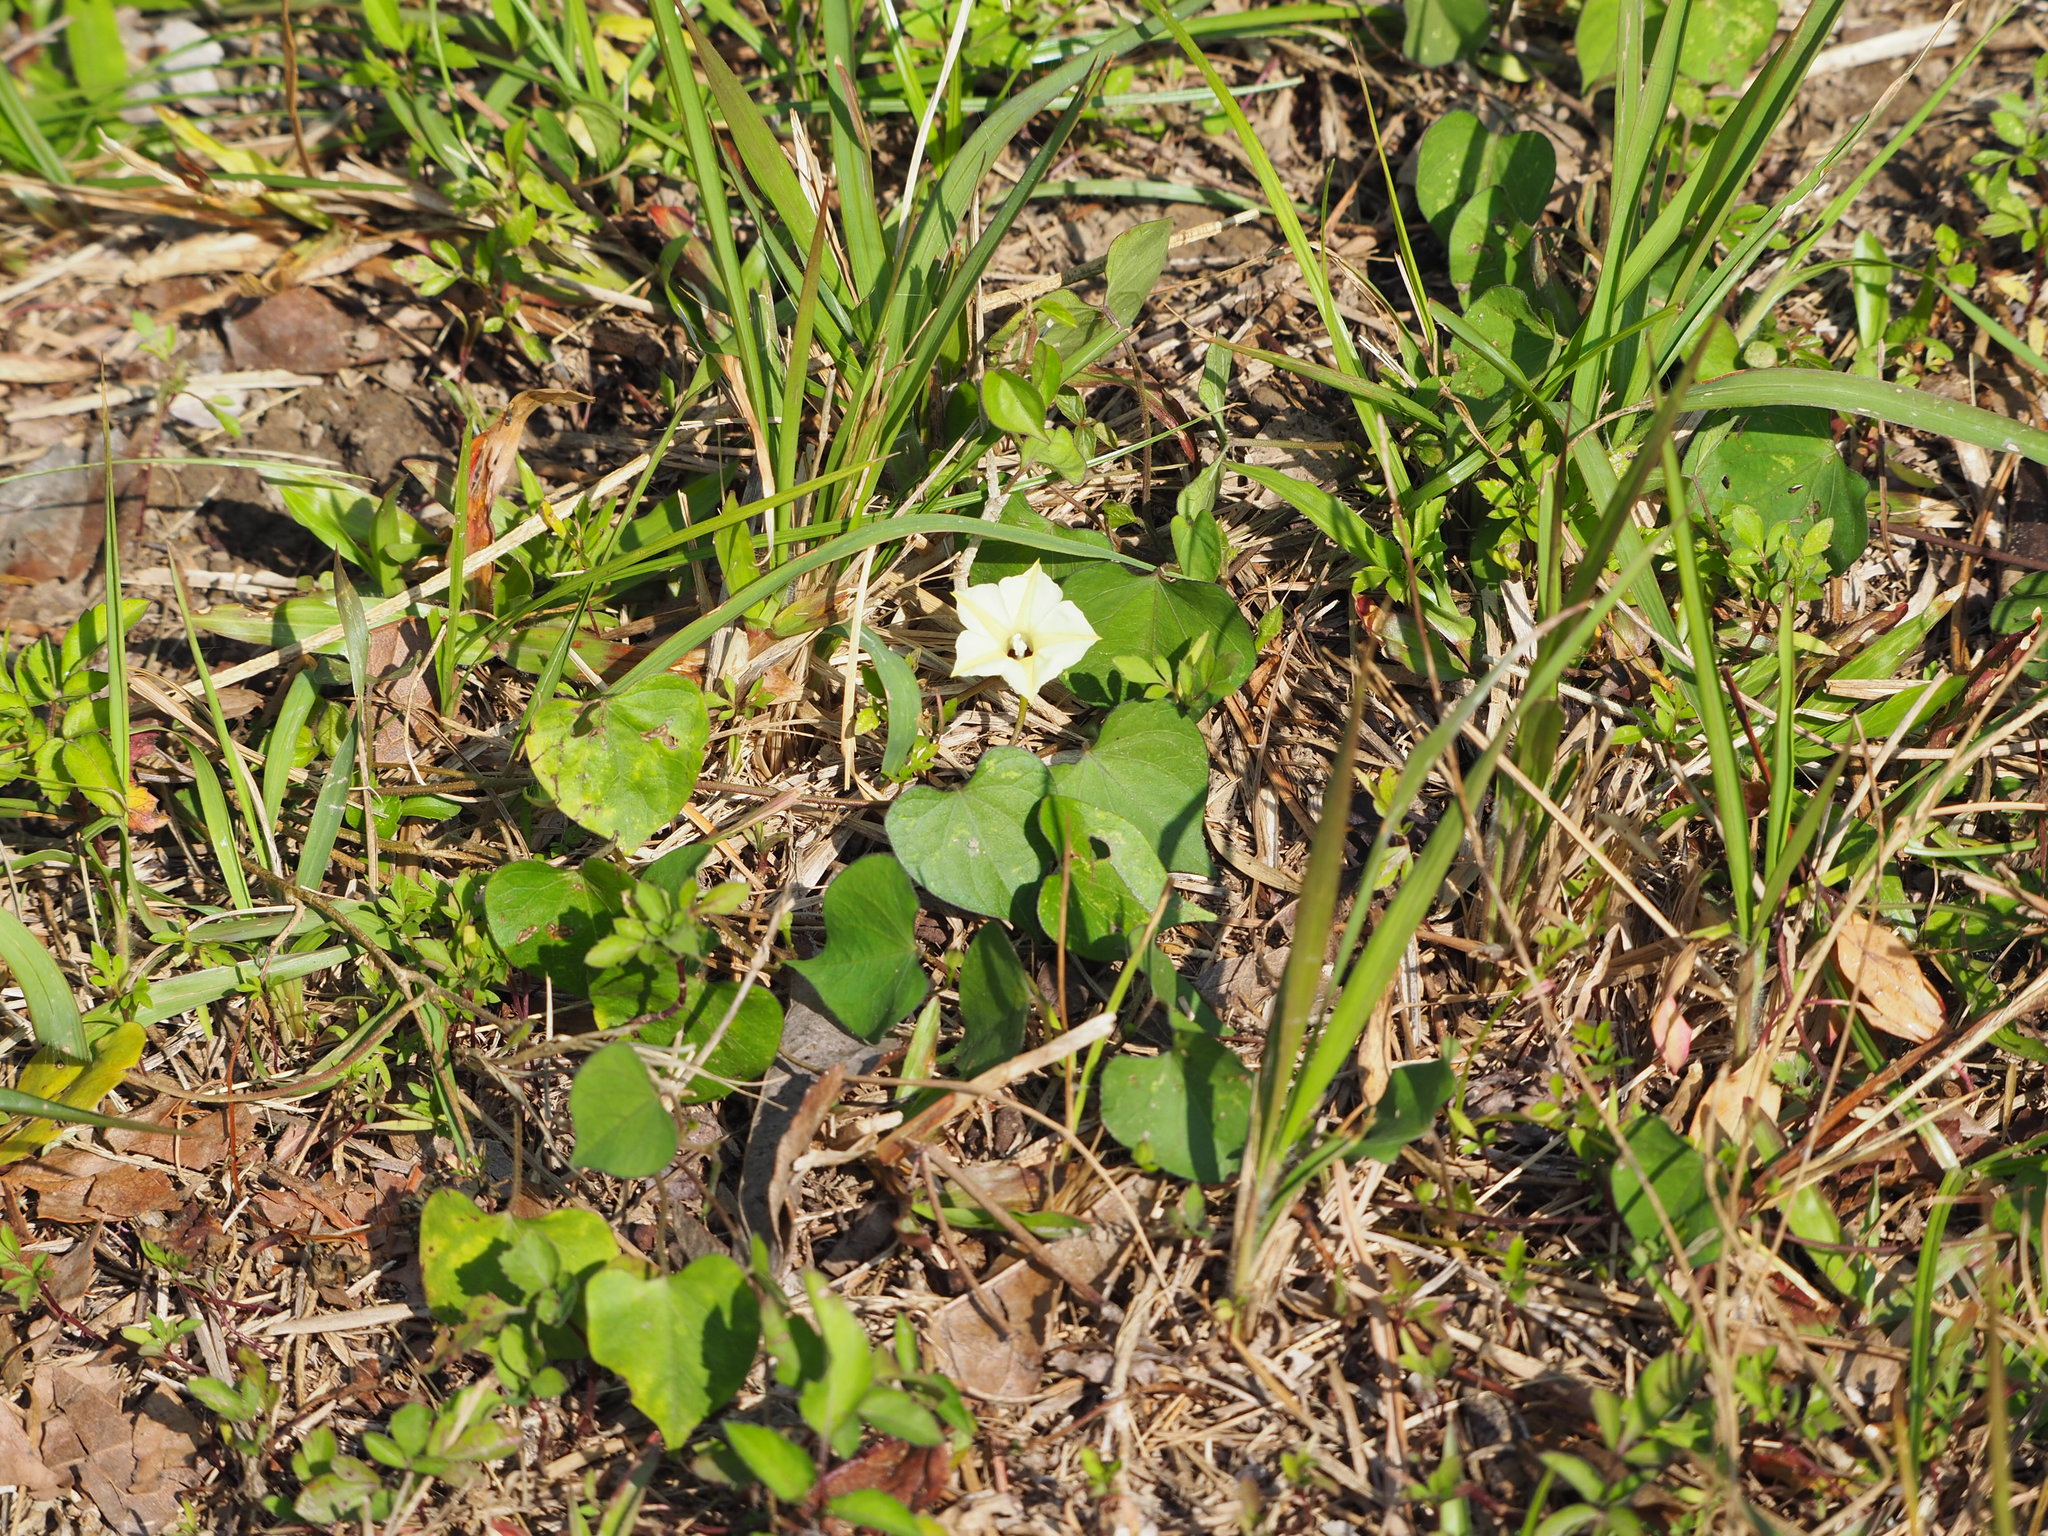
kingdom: Plantae
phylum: Tracheophyta
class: Magnoliopsida
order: Solanales
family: Convolvulaceae
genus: Ipomoea
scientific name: Ipomoea obscura
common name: Obscure morning-glory
